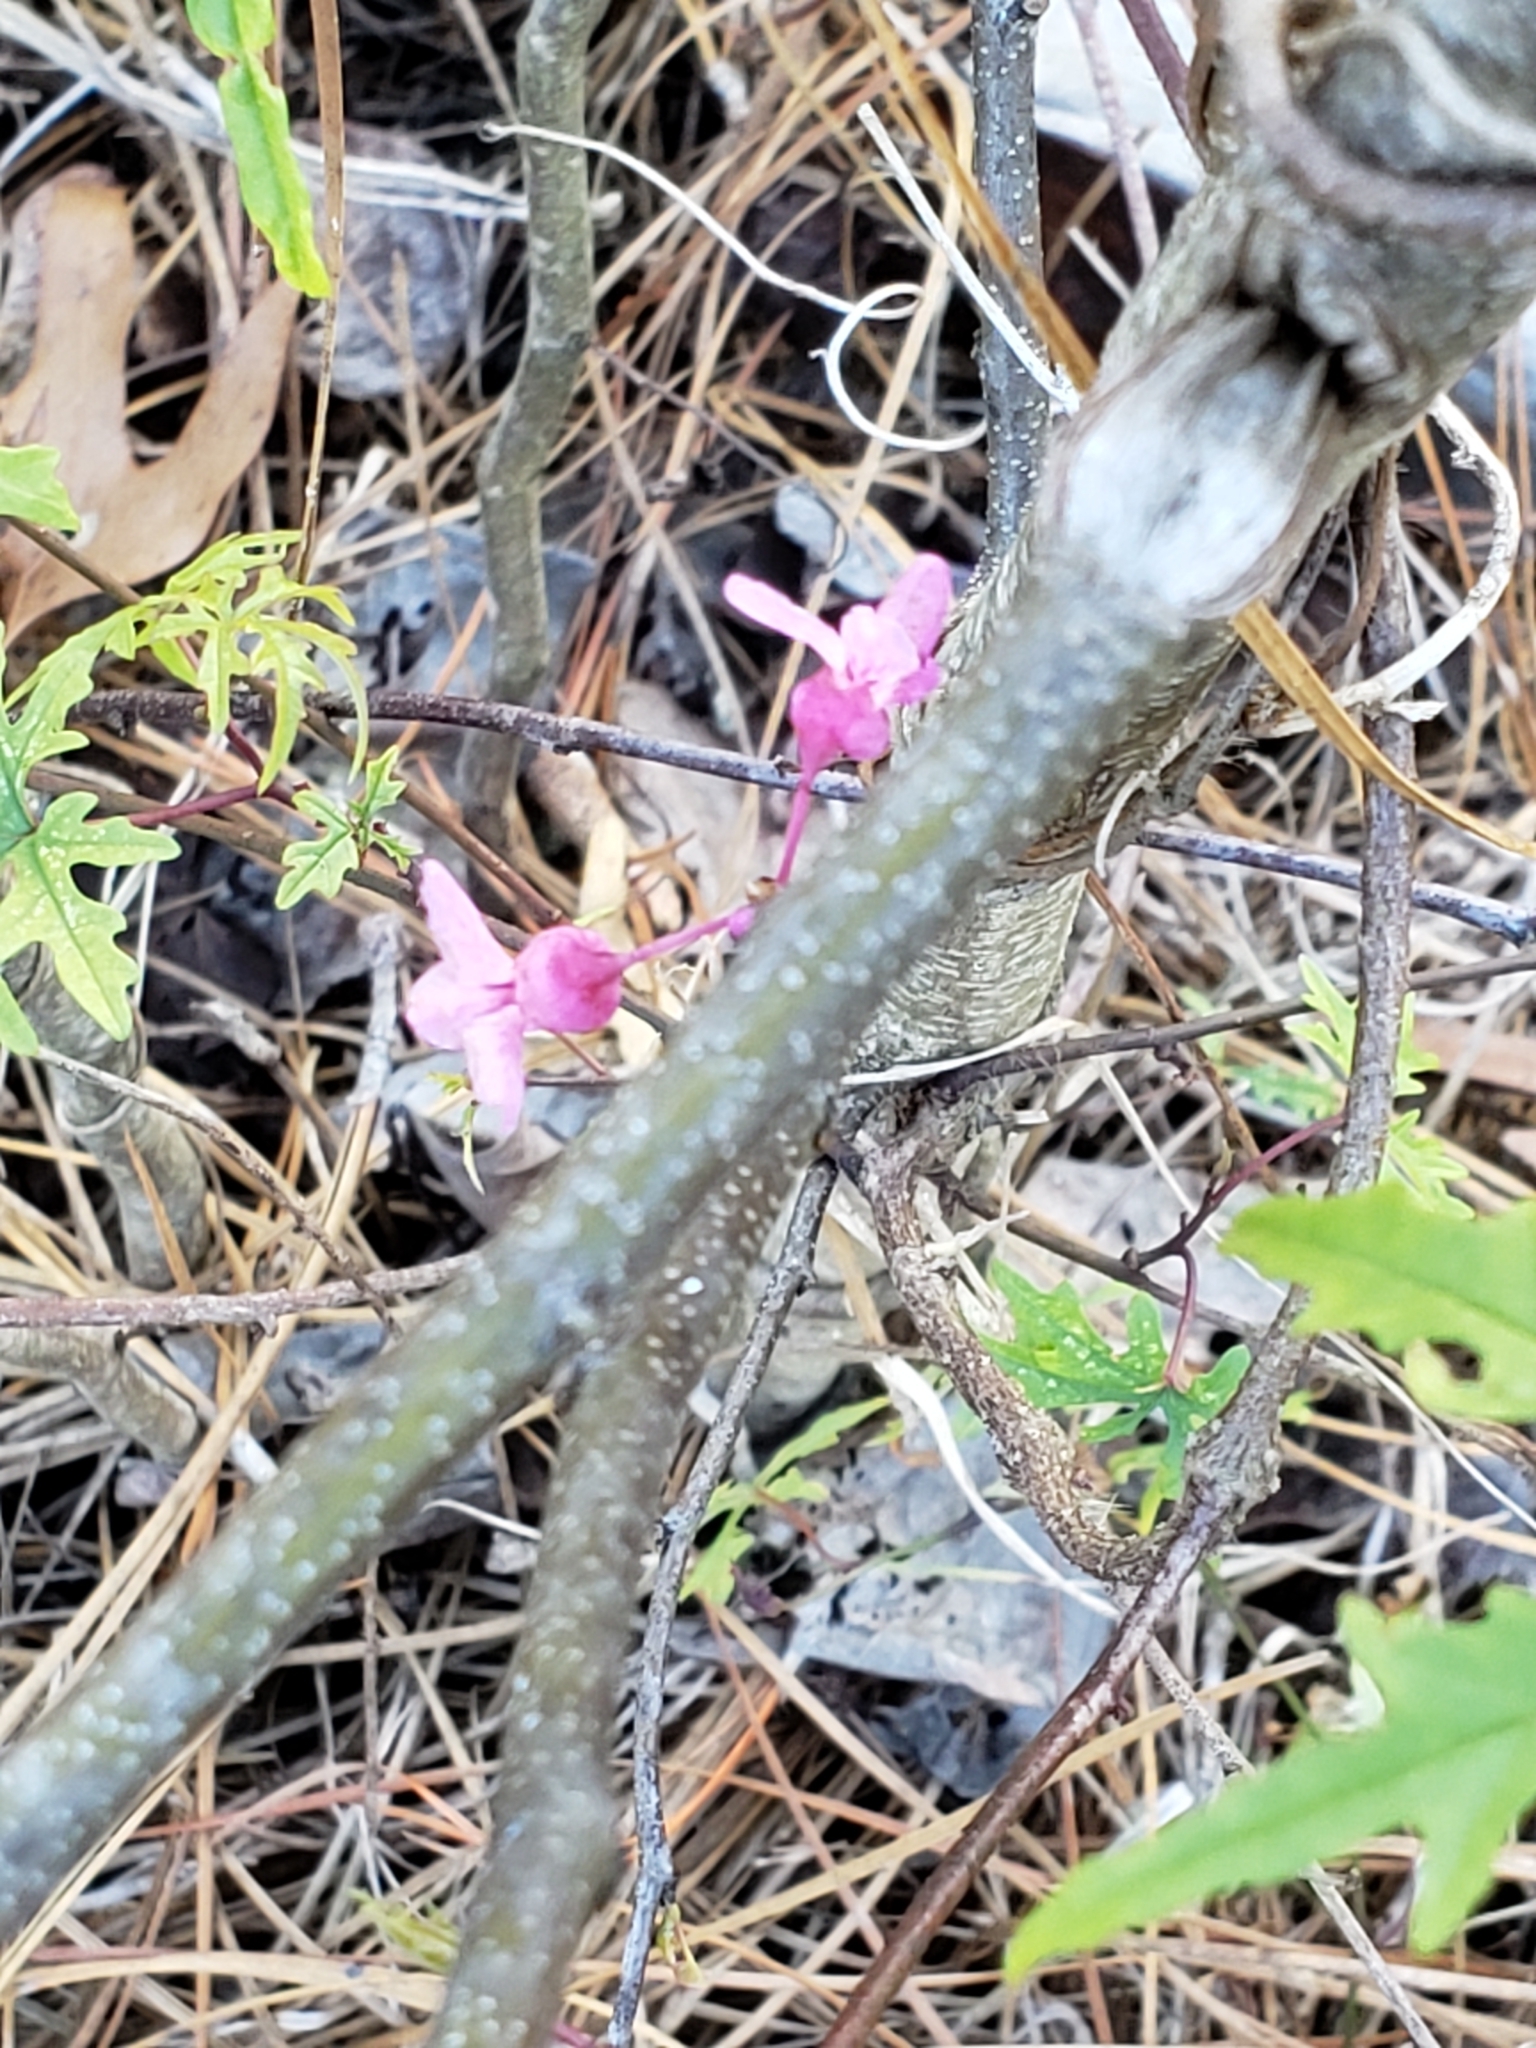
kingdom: Plantae
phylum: Tracheophyta
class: Magnoliopsida
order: Fabales
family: Fabaceae
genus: Cercis
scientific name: Cercis canadensis
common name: Eastern redbud
